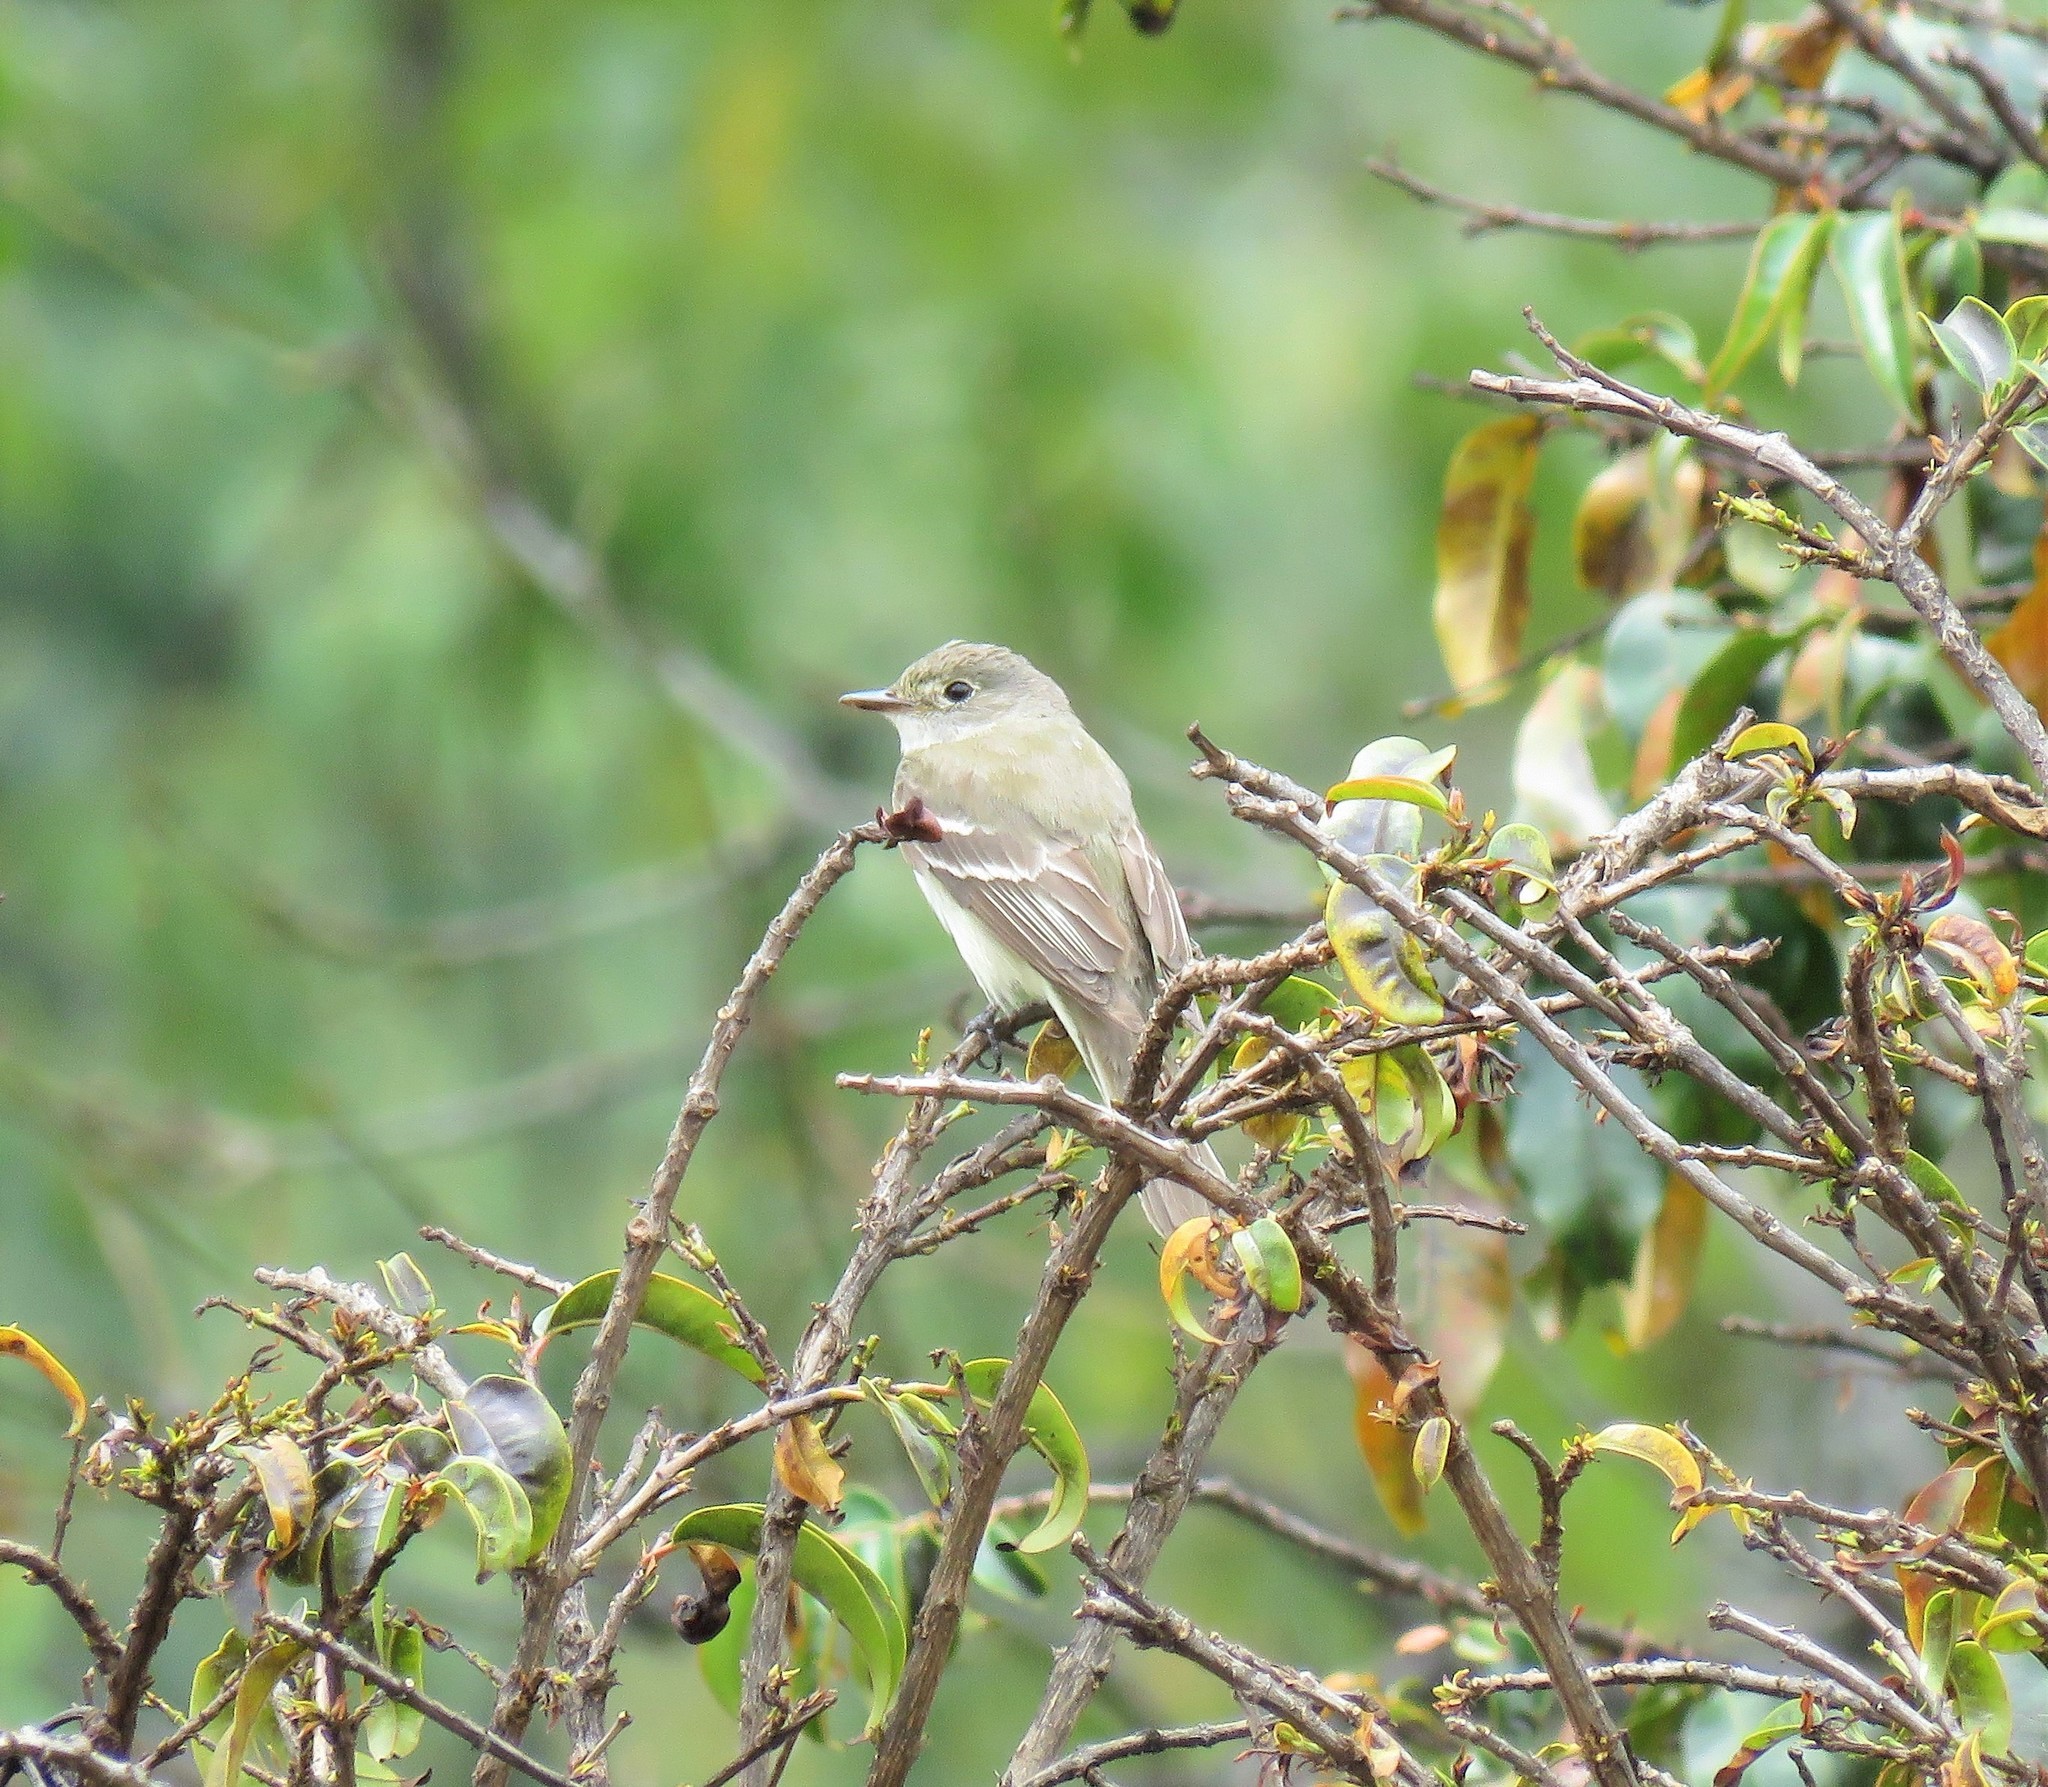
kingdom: Animalia
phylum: Chordata
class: Aves
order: Passeriformes
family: Tyrannidae
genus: Empidonax
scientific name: Empidonax alnorum
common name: Alder flycatcher
